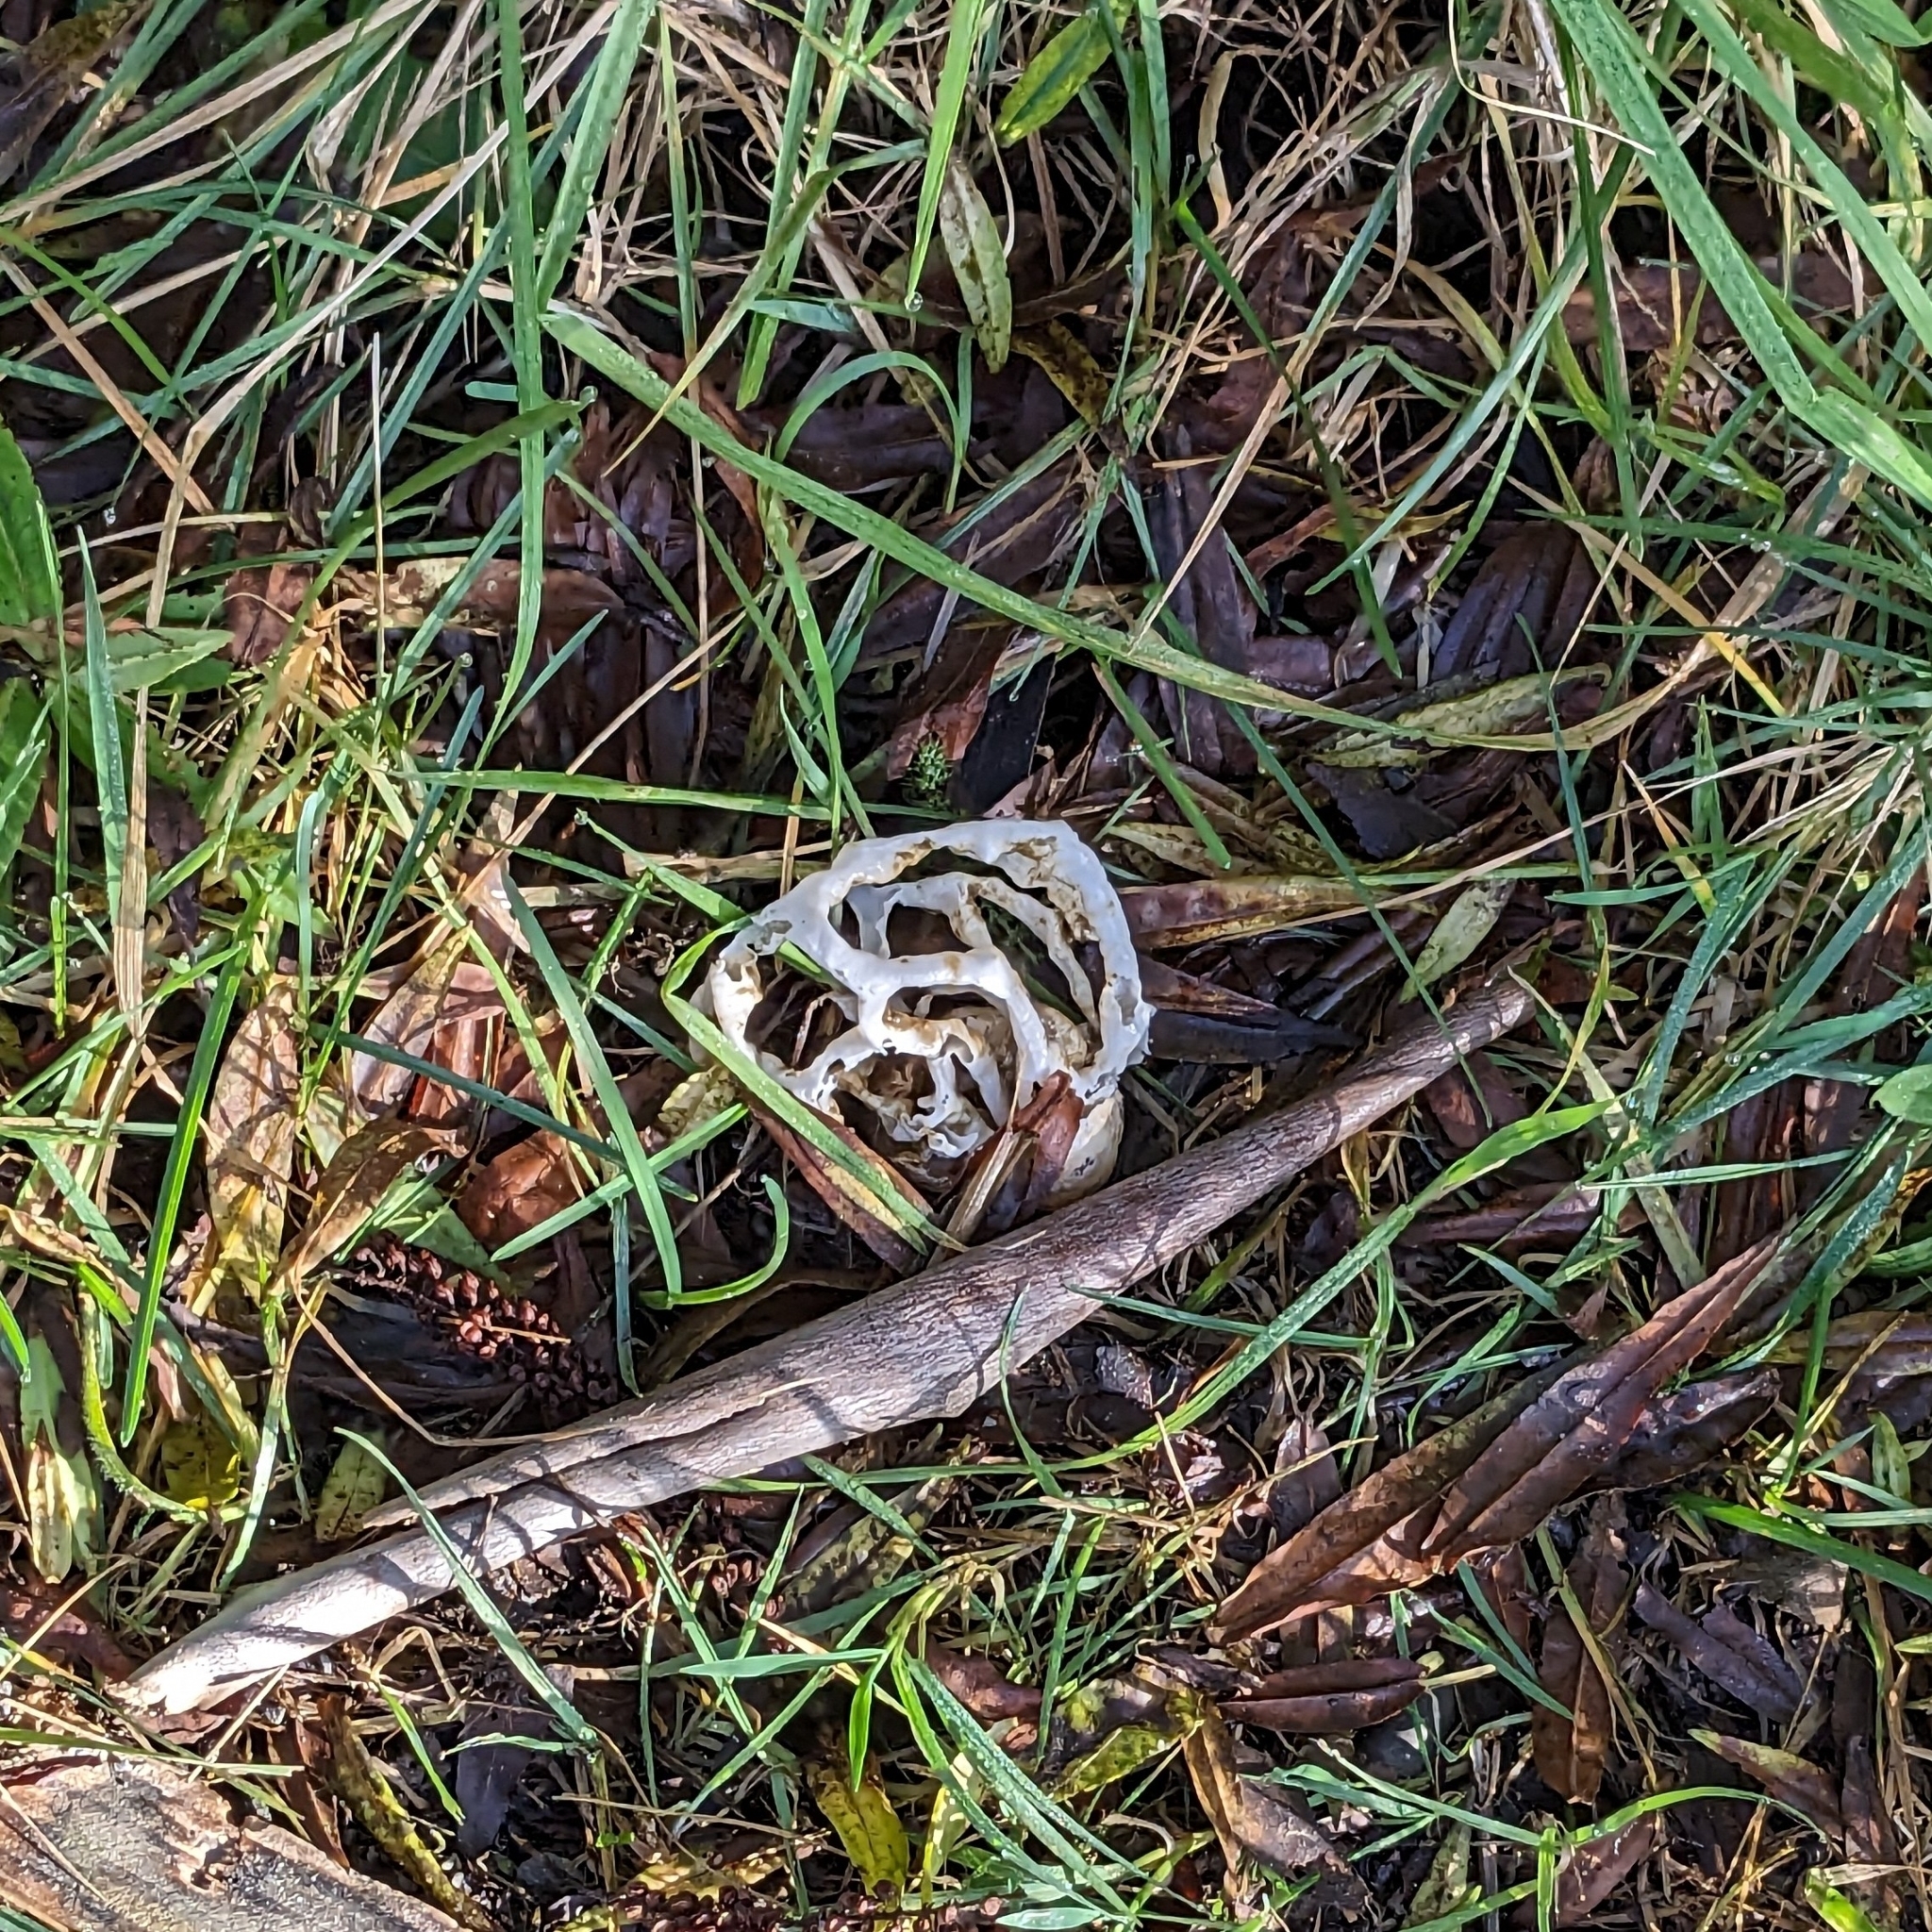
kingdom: Fungi
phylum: Basidiomycota
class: Agaricomycetes
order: Phallales
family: Phallaceae
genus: Ileodictyon
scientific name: Ileodictyon cibarium
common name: Basket fungus
